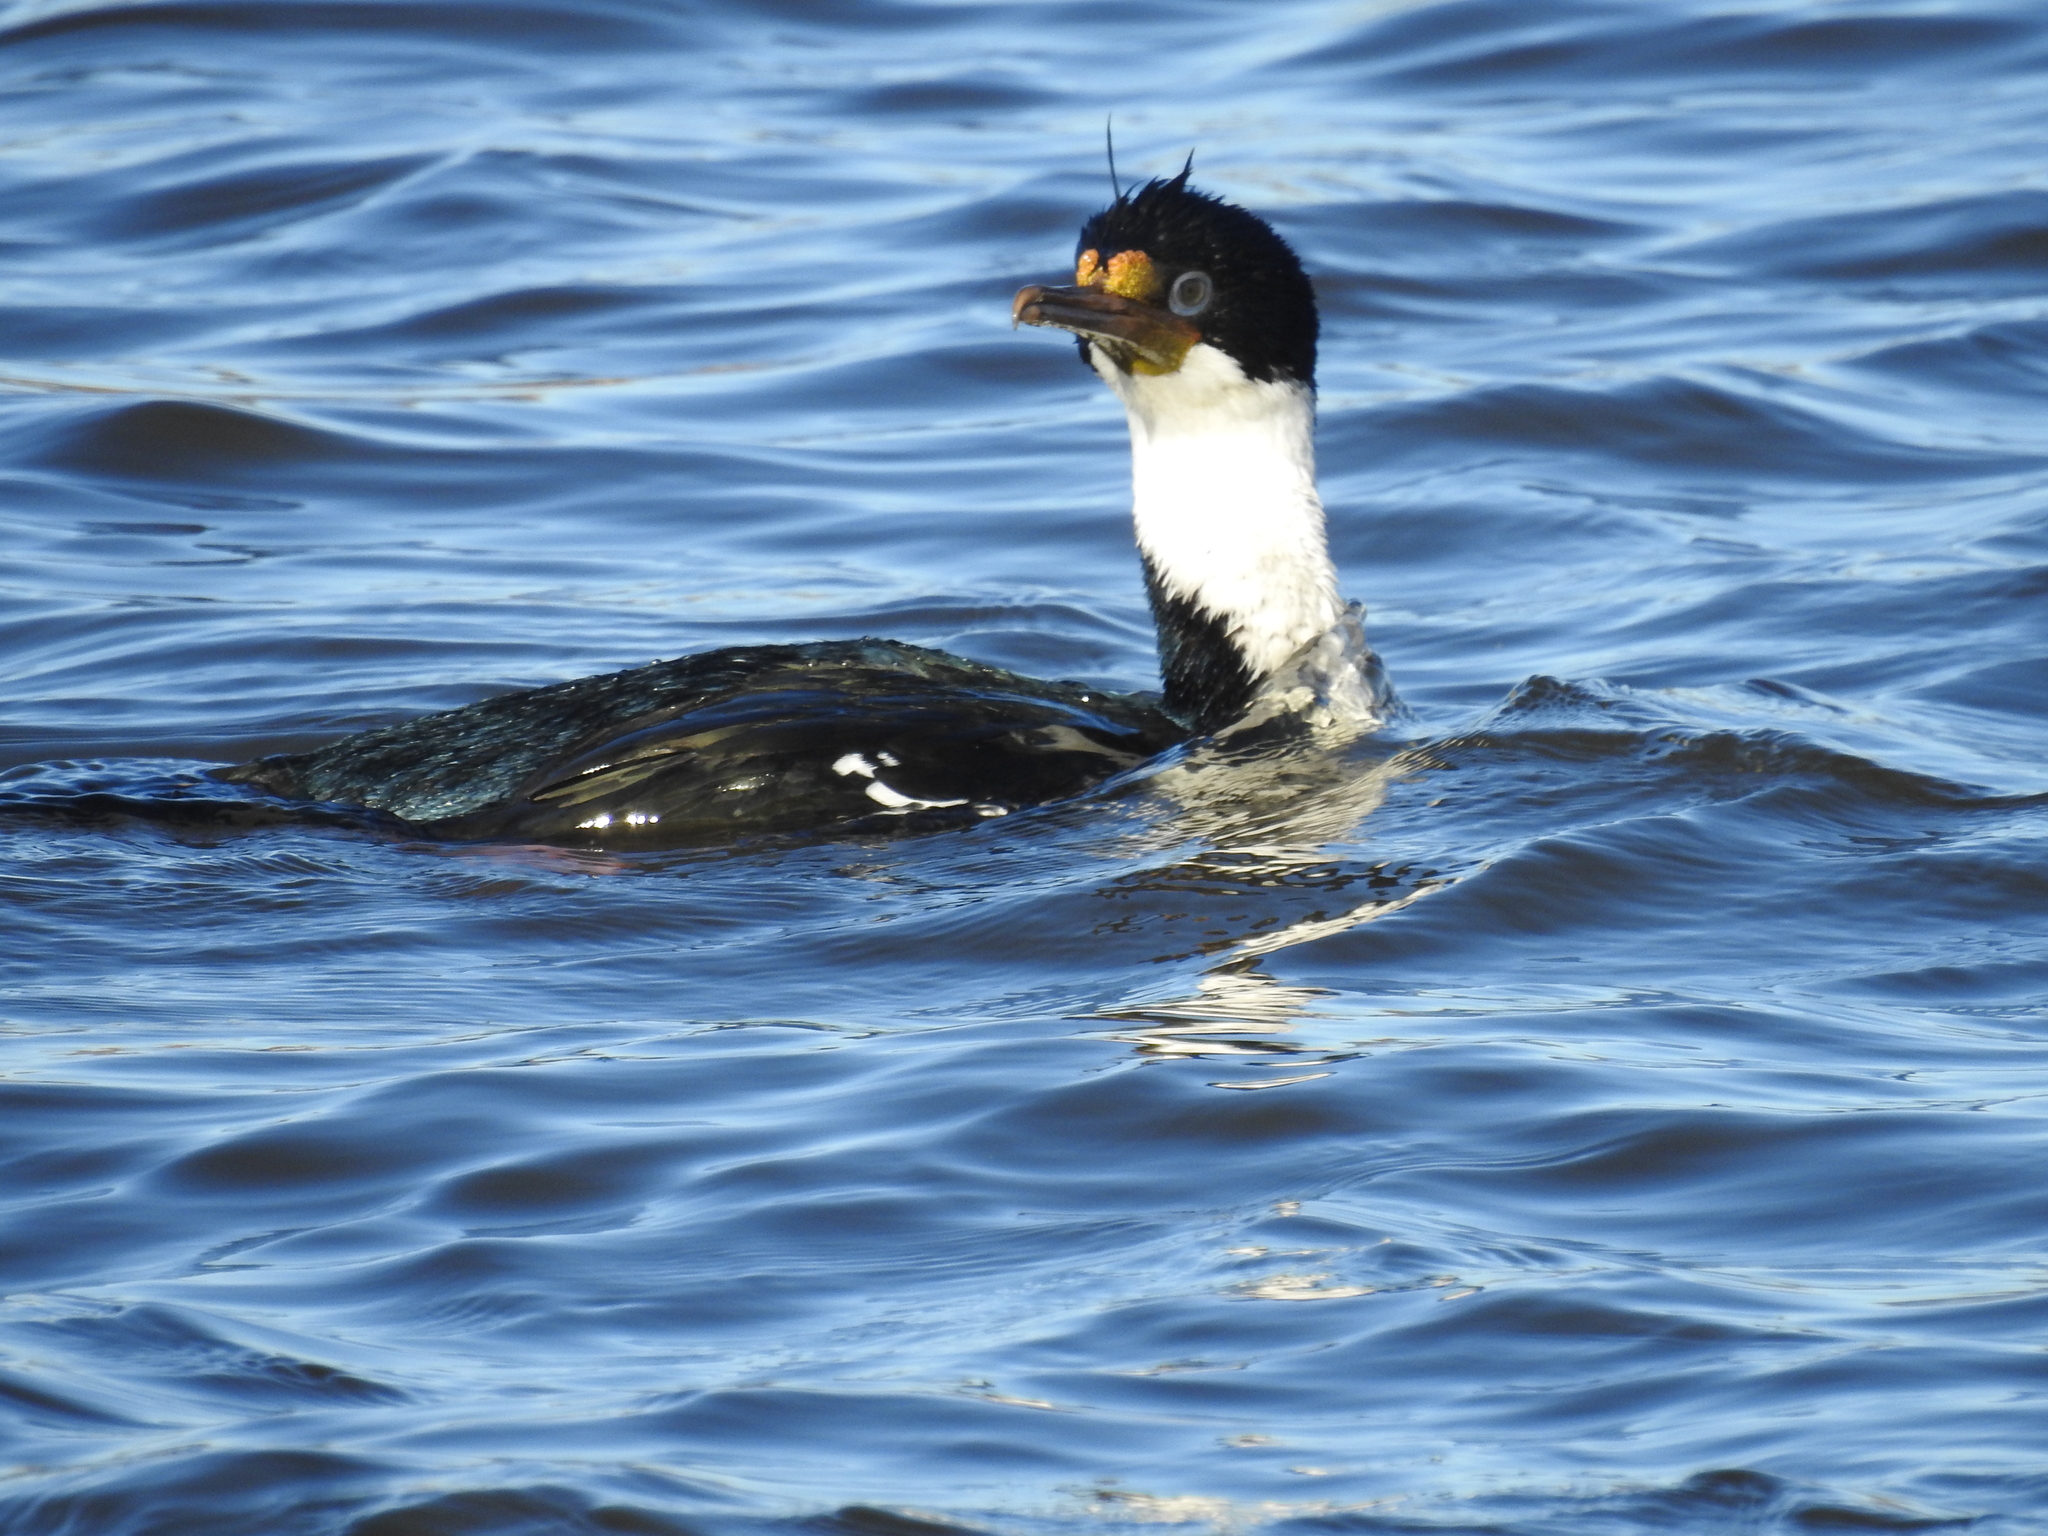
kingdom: Animalia
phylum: Chordata
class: Aves
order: Suliformes
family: Phalacrocoracidae
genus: Leucocarbo
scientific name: Leucocarbo atriceps
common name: Imperial shag
